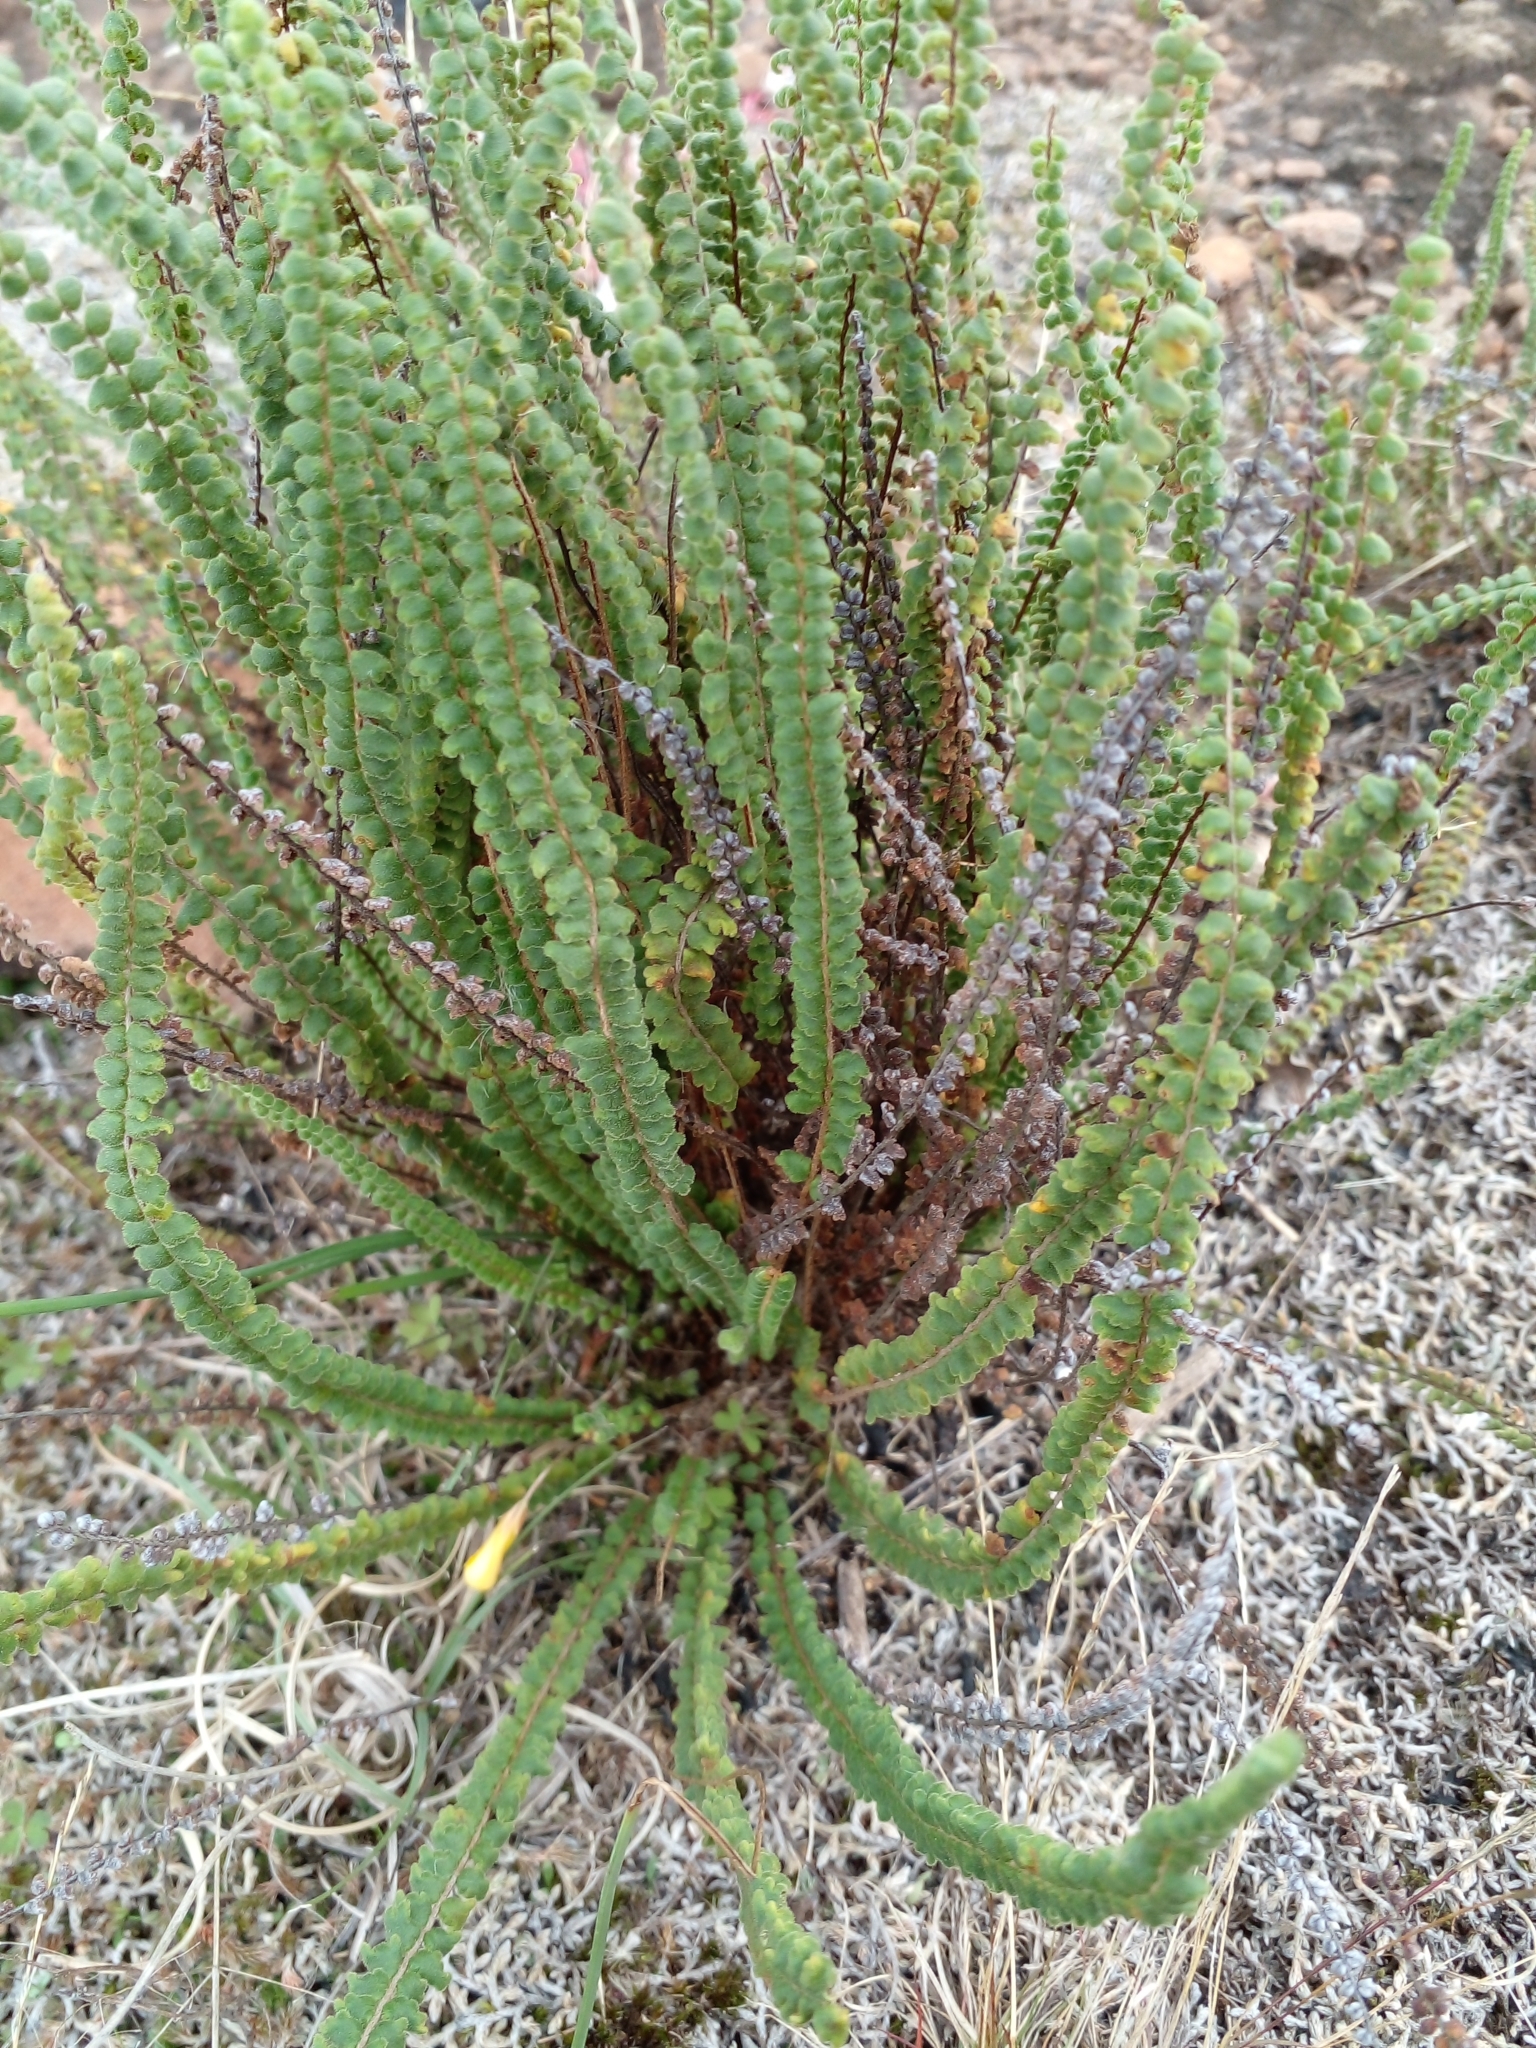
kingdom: Plantae
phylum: Tracheophyta
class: Polypodiopsida
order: Polypodiales
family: Pteridaceae
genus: Cheilanthes
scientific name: Cheilanthes micropteris
